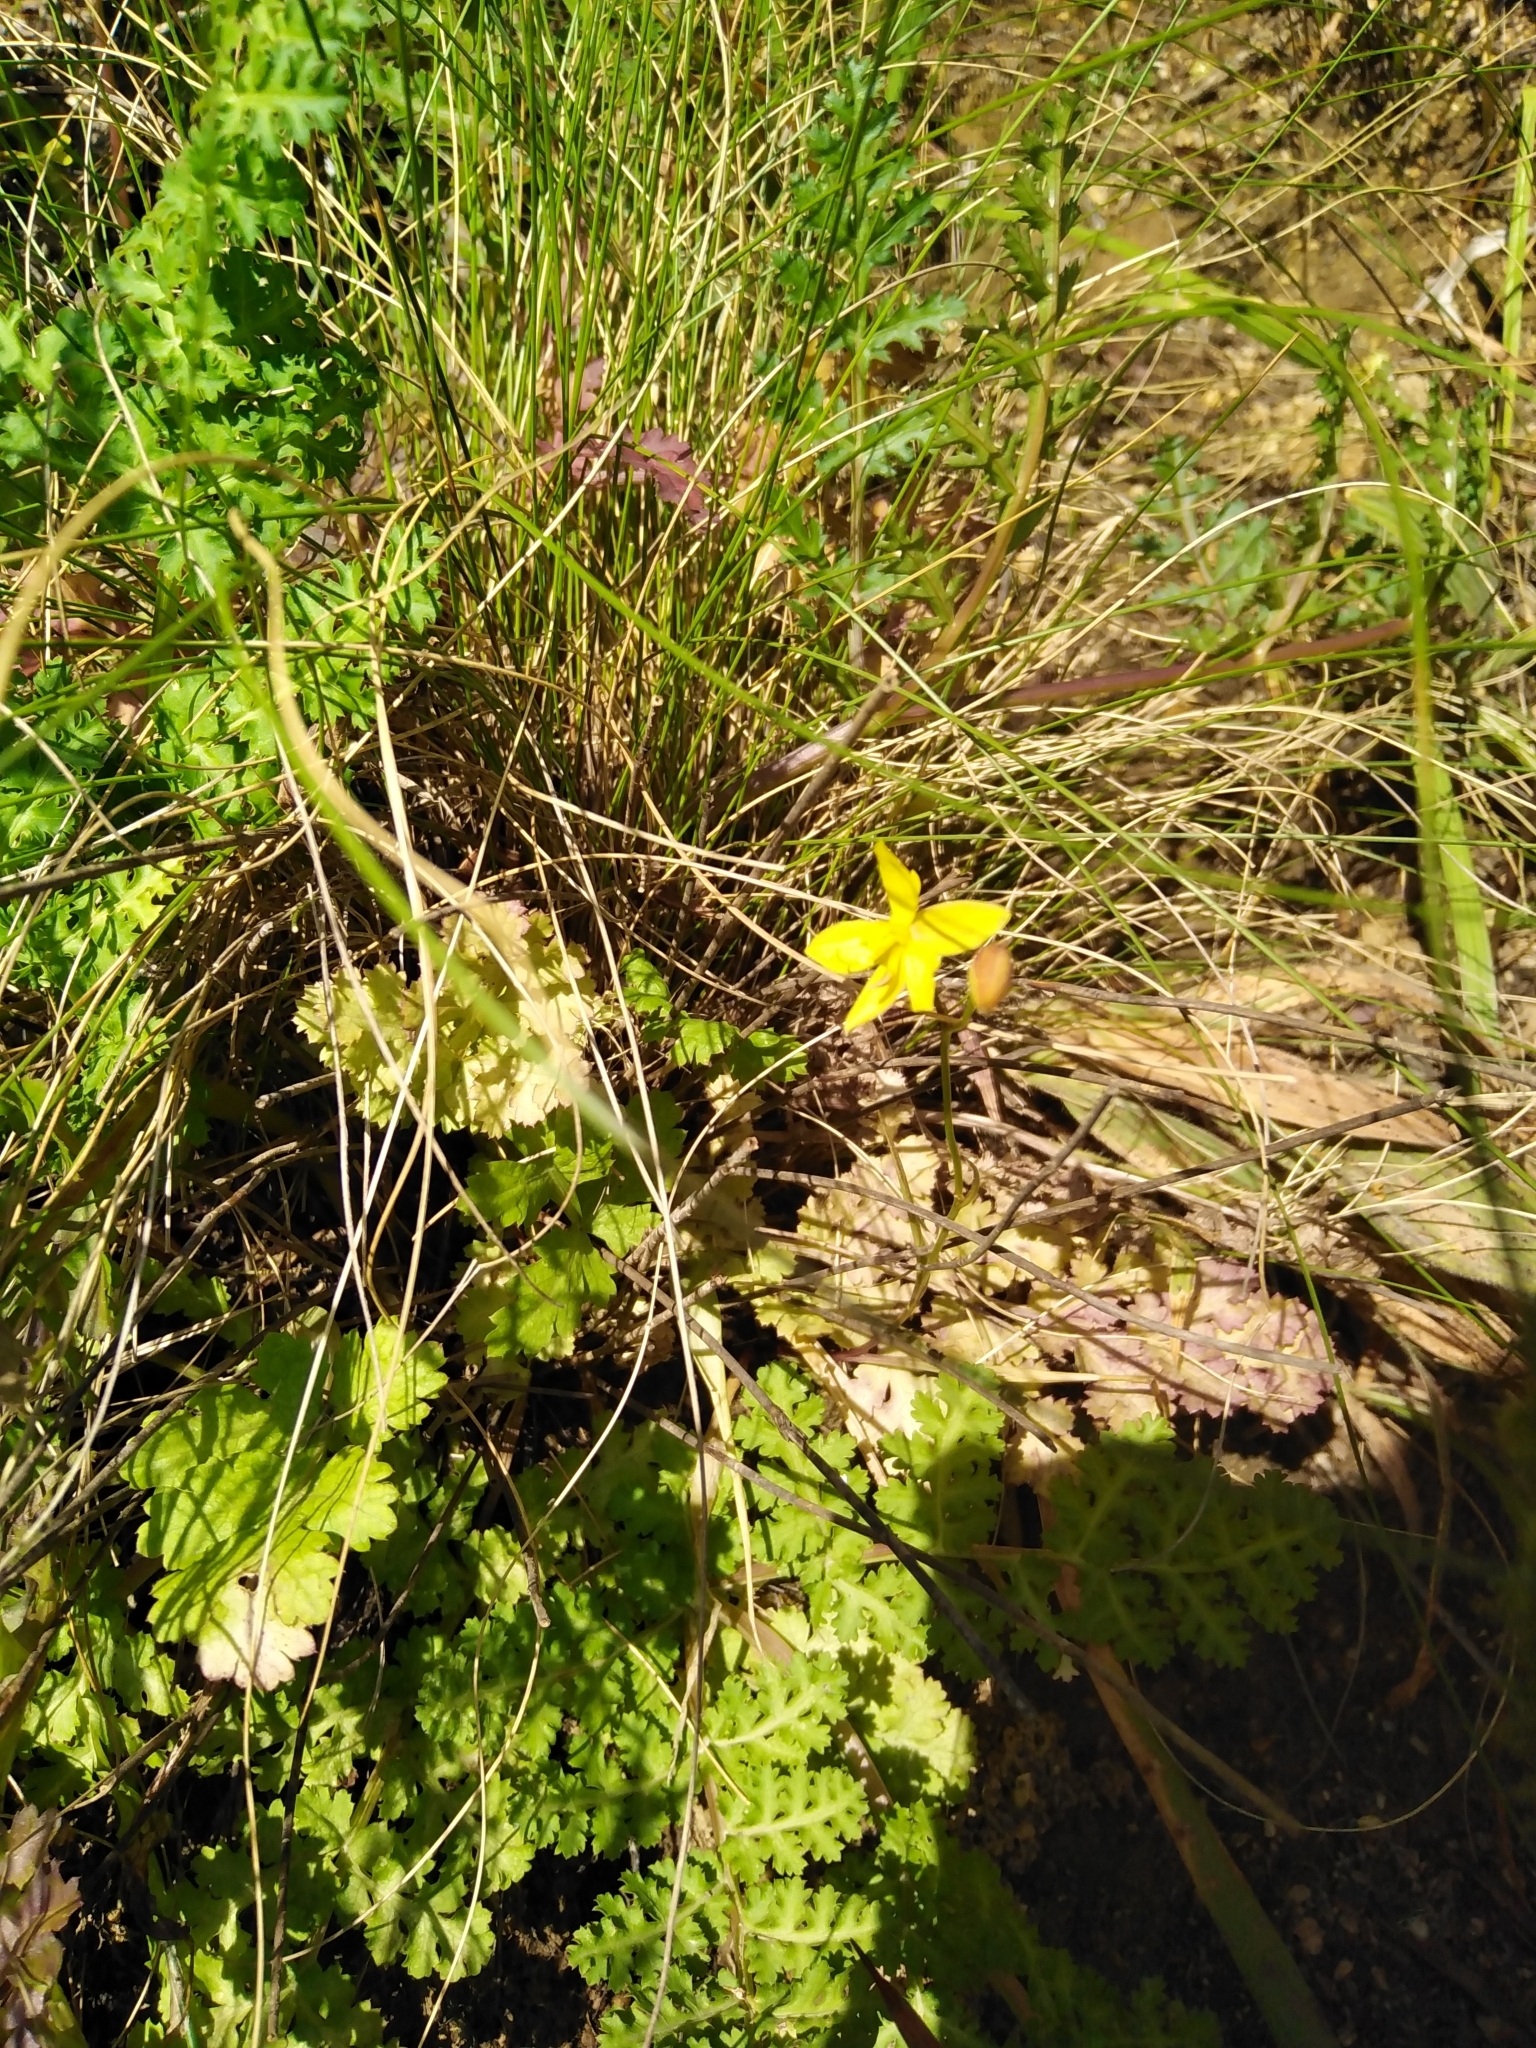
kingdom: Plantae
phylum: Tracheophyta
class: Liliopsida
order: Asparagales
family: Tecophilaeaceae
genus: Cyanella
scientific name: Cyanella lutea
